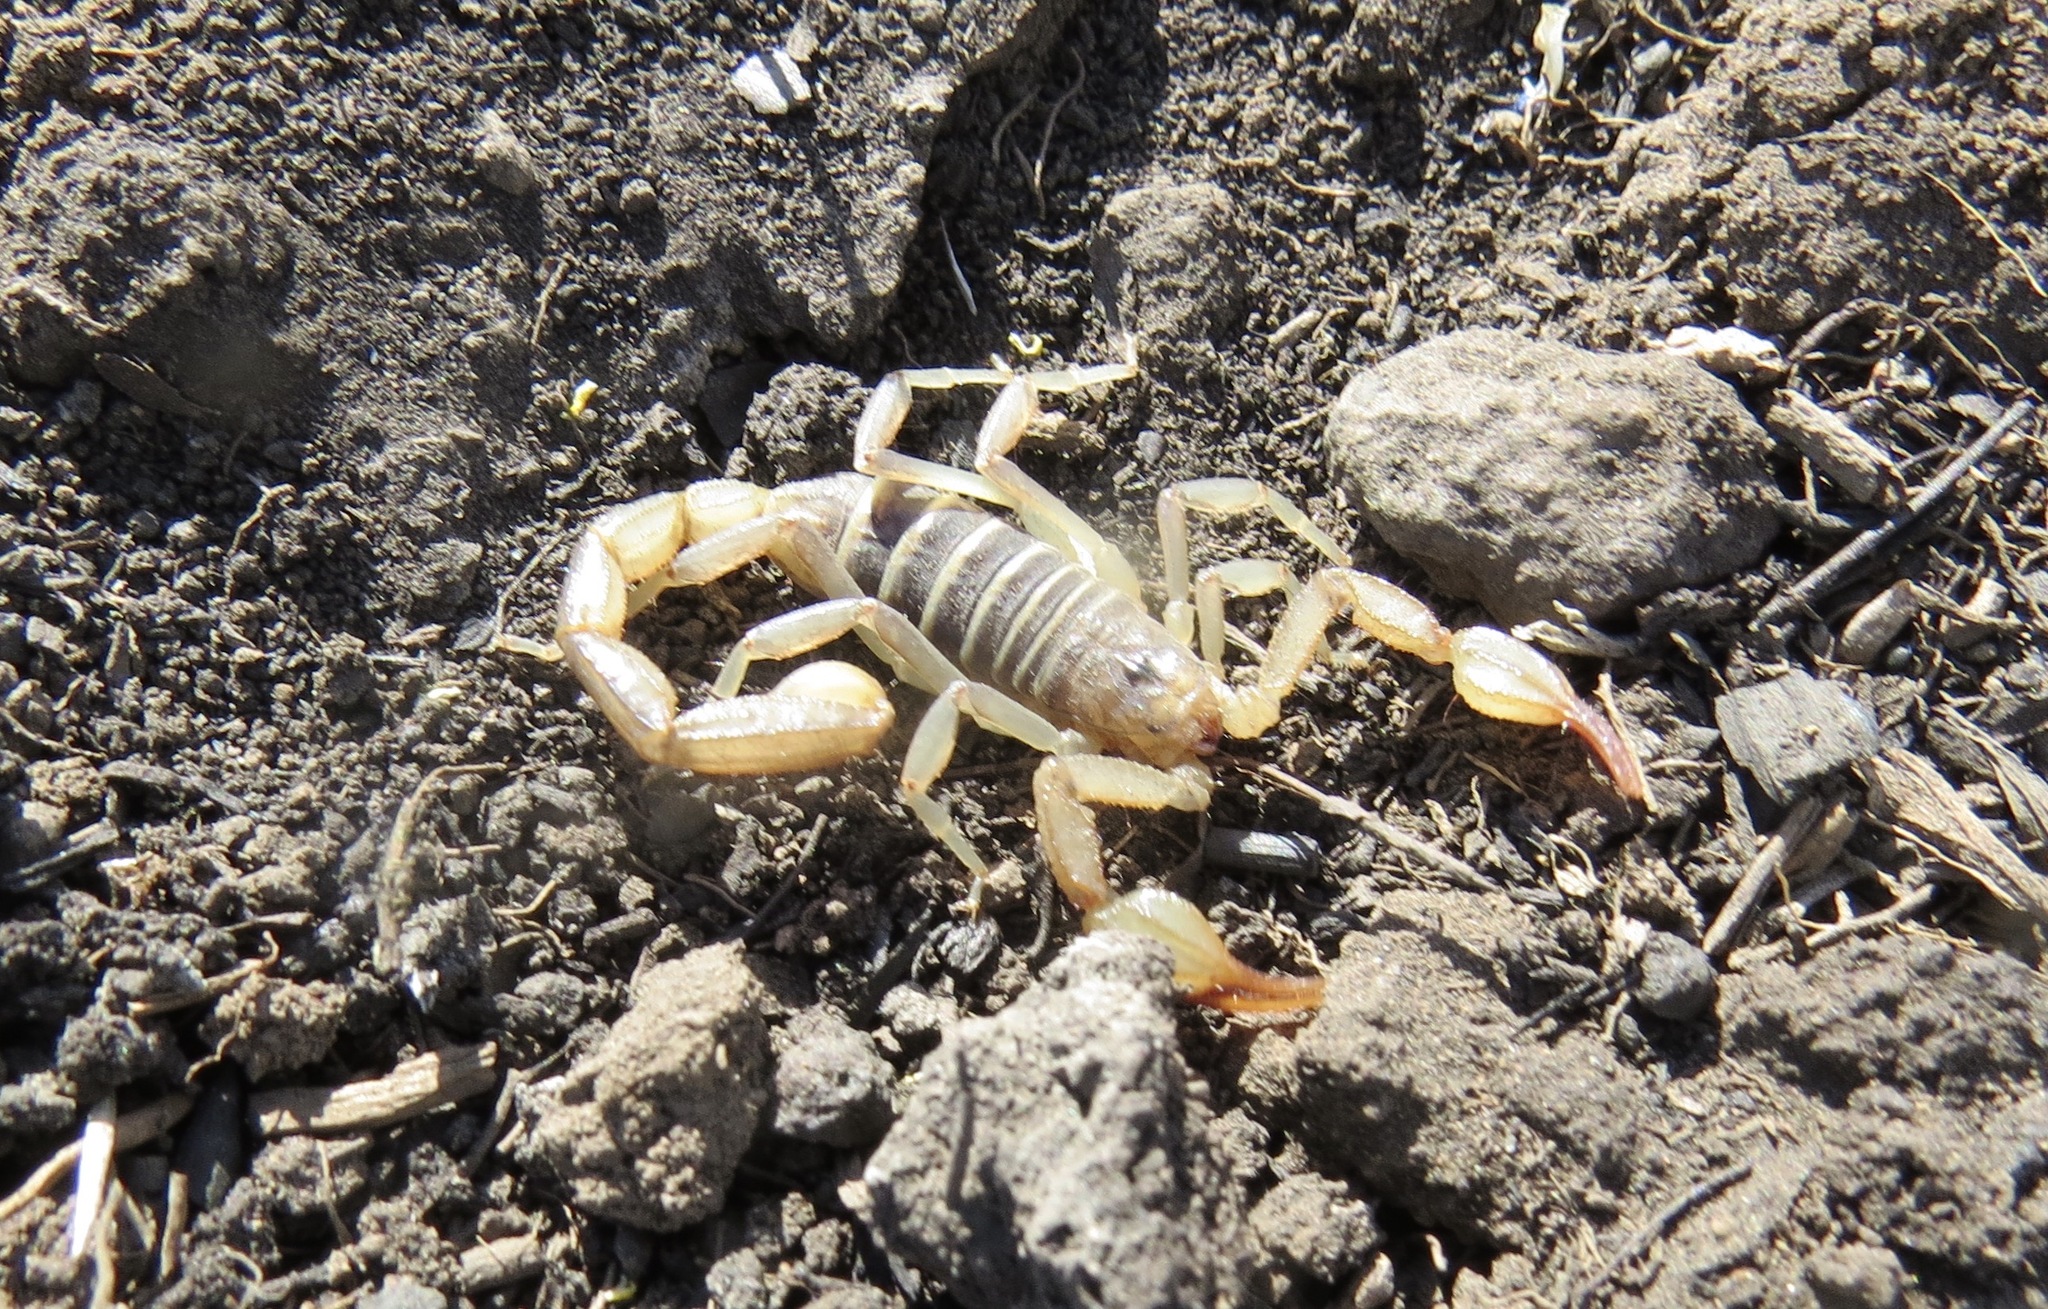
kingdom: Animalia
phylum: Arthropoda
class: Arachnida
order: Scorpiones
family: Vaejovidae
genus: Paruroctonus
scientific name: Paruroctonus boreus
